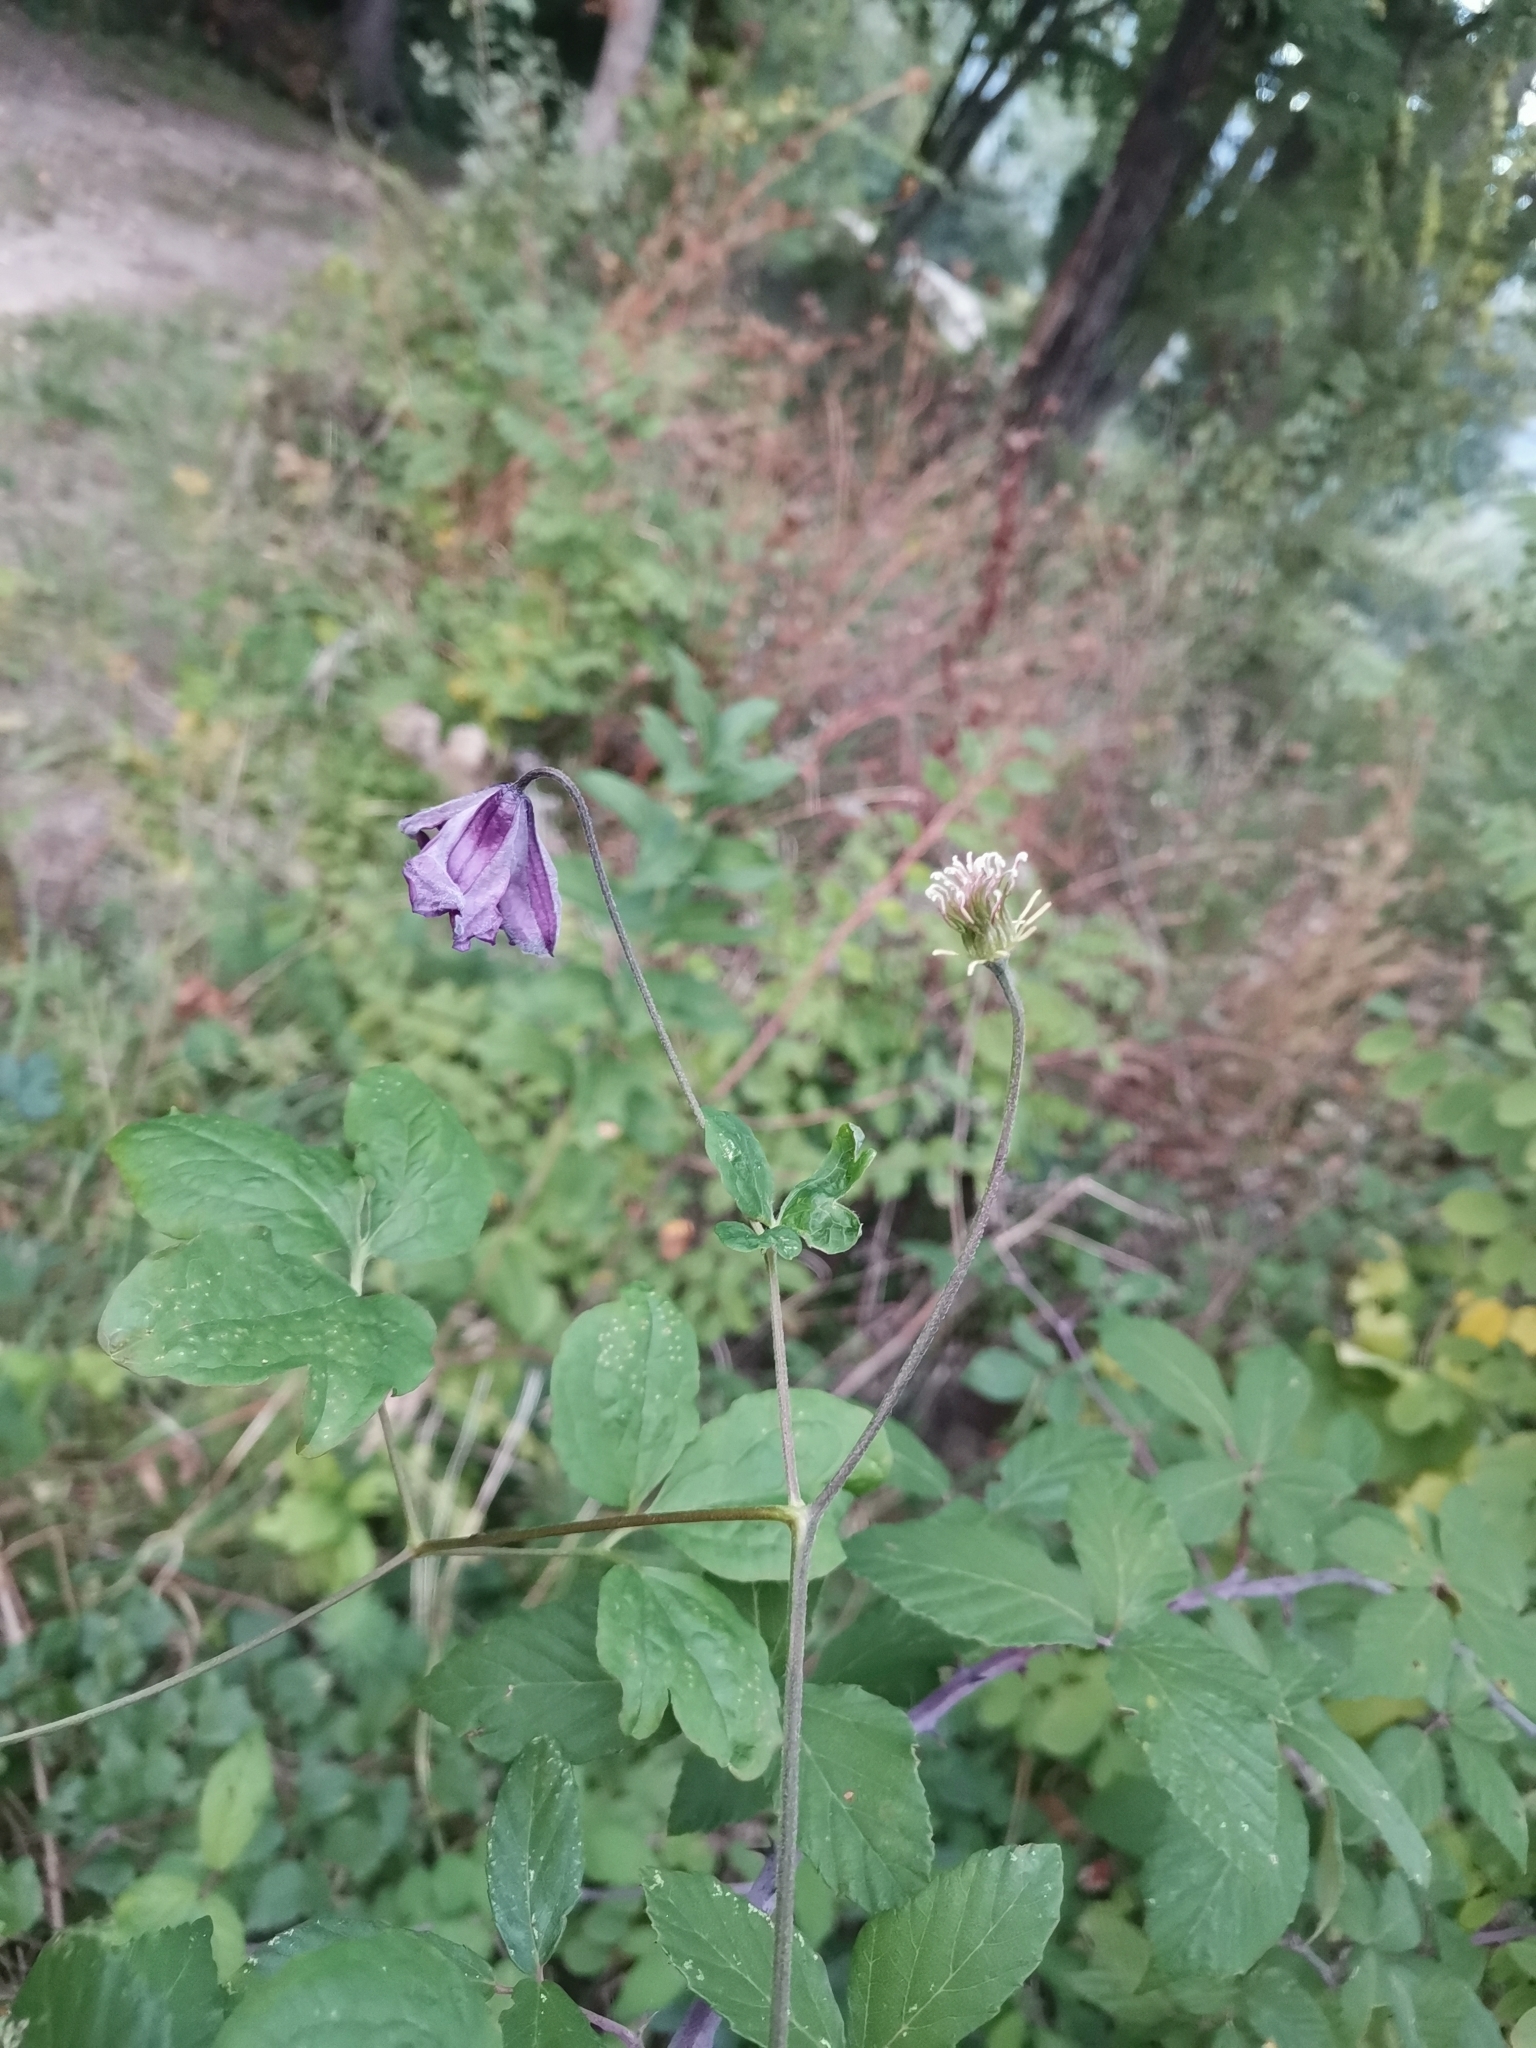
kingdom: Plantae
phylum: Tracheophyta
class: Magnoliopsida
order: Ranunculales
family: Ranunculaceae
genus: Clematis
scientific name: Clematis viticella
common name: Purple clematis
